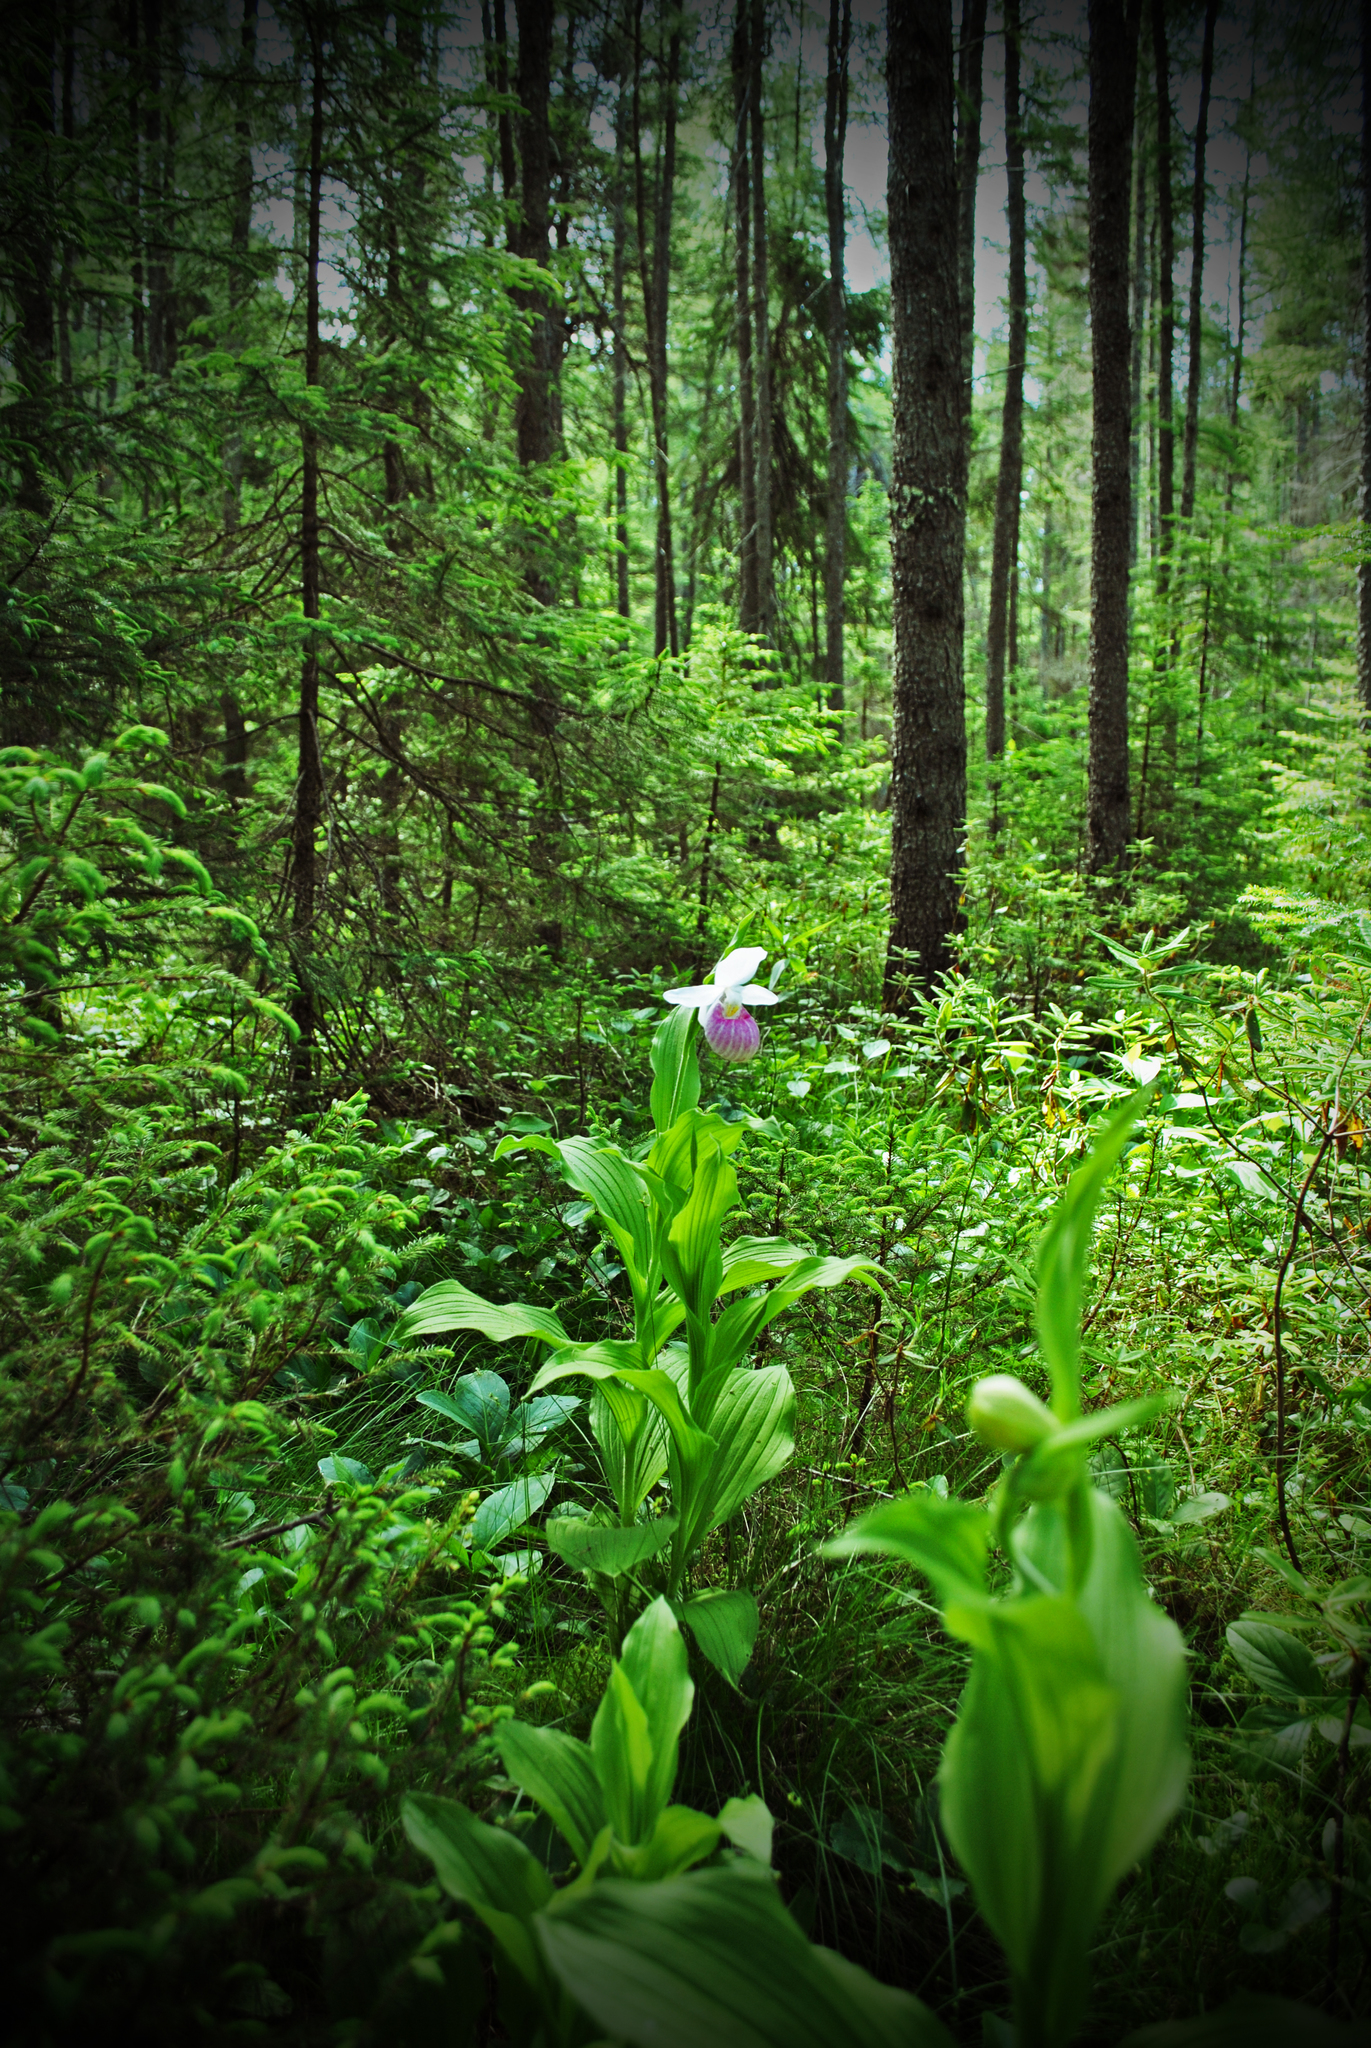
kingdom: Plantae
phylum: Tracheophyta
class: Liliopsida
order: Asparagales
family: Orchidaceae
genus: Cypripedium
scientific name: Cypripedium reginae
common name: Queen lady's-slipper
